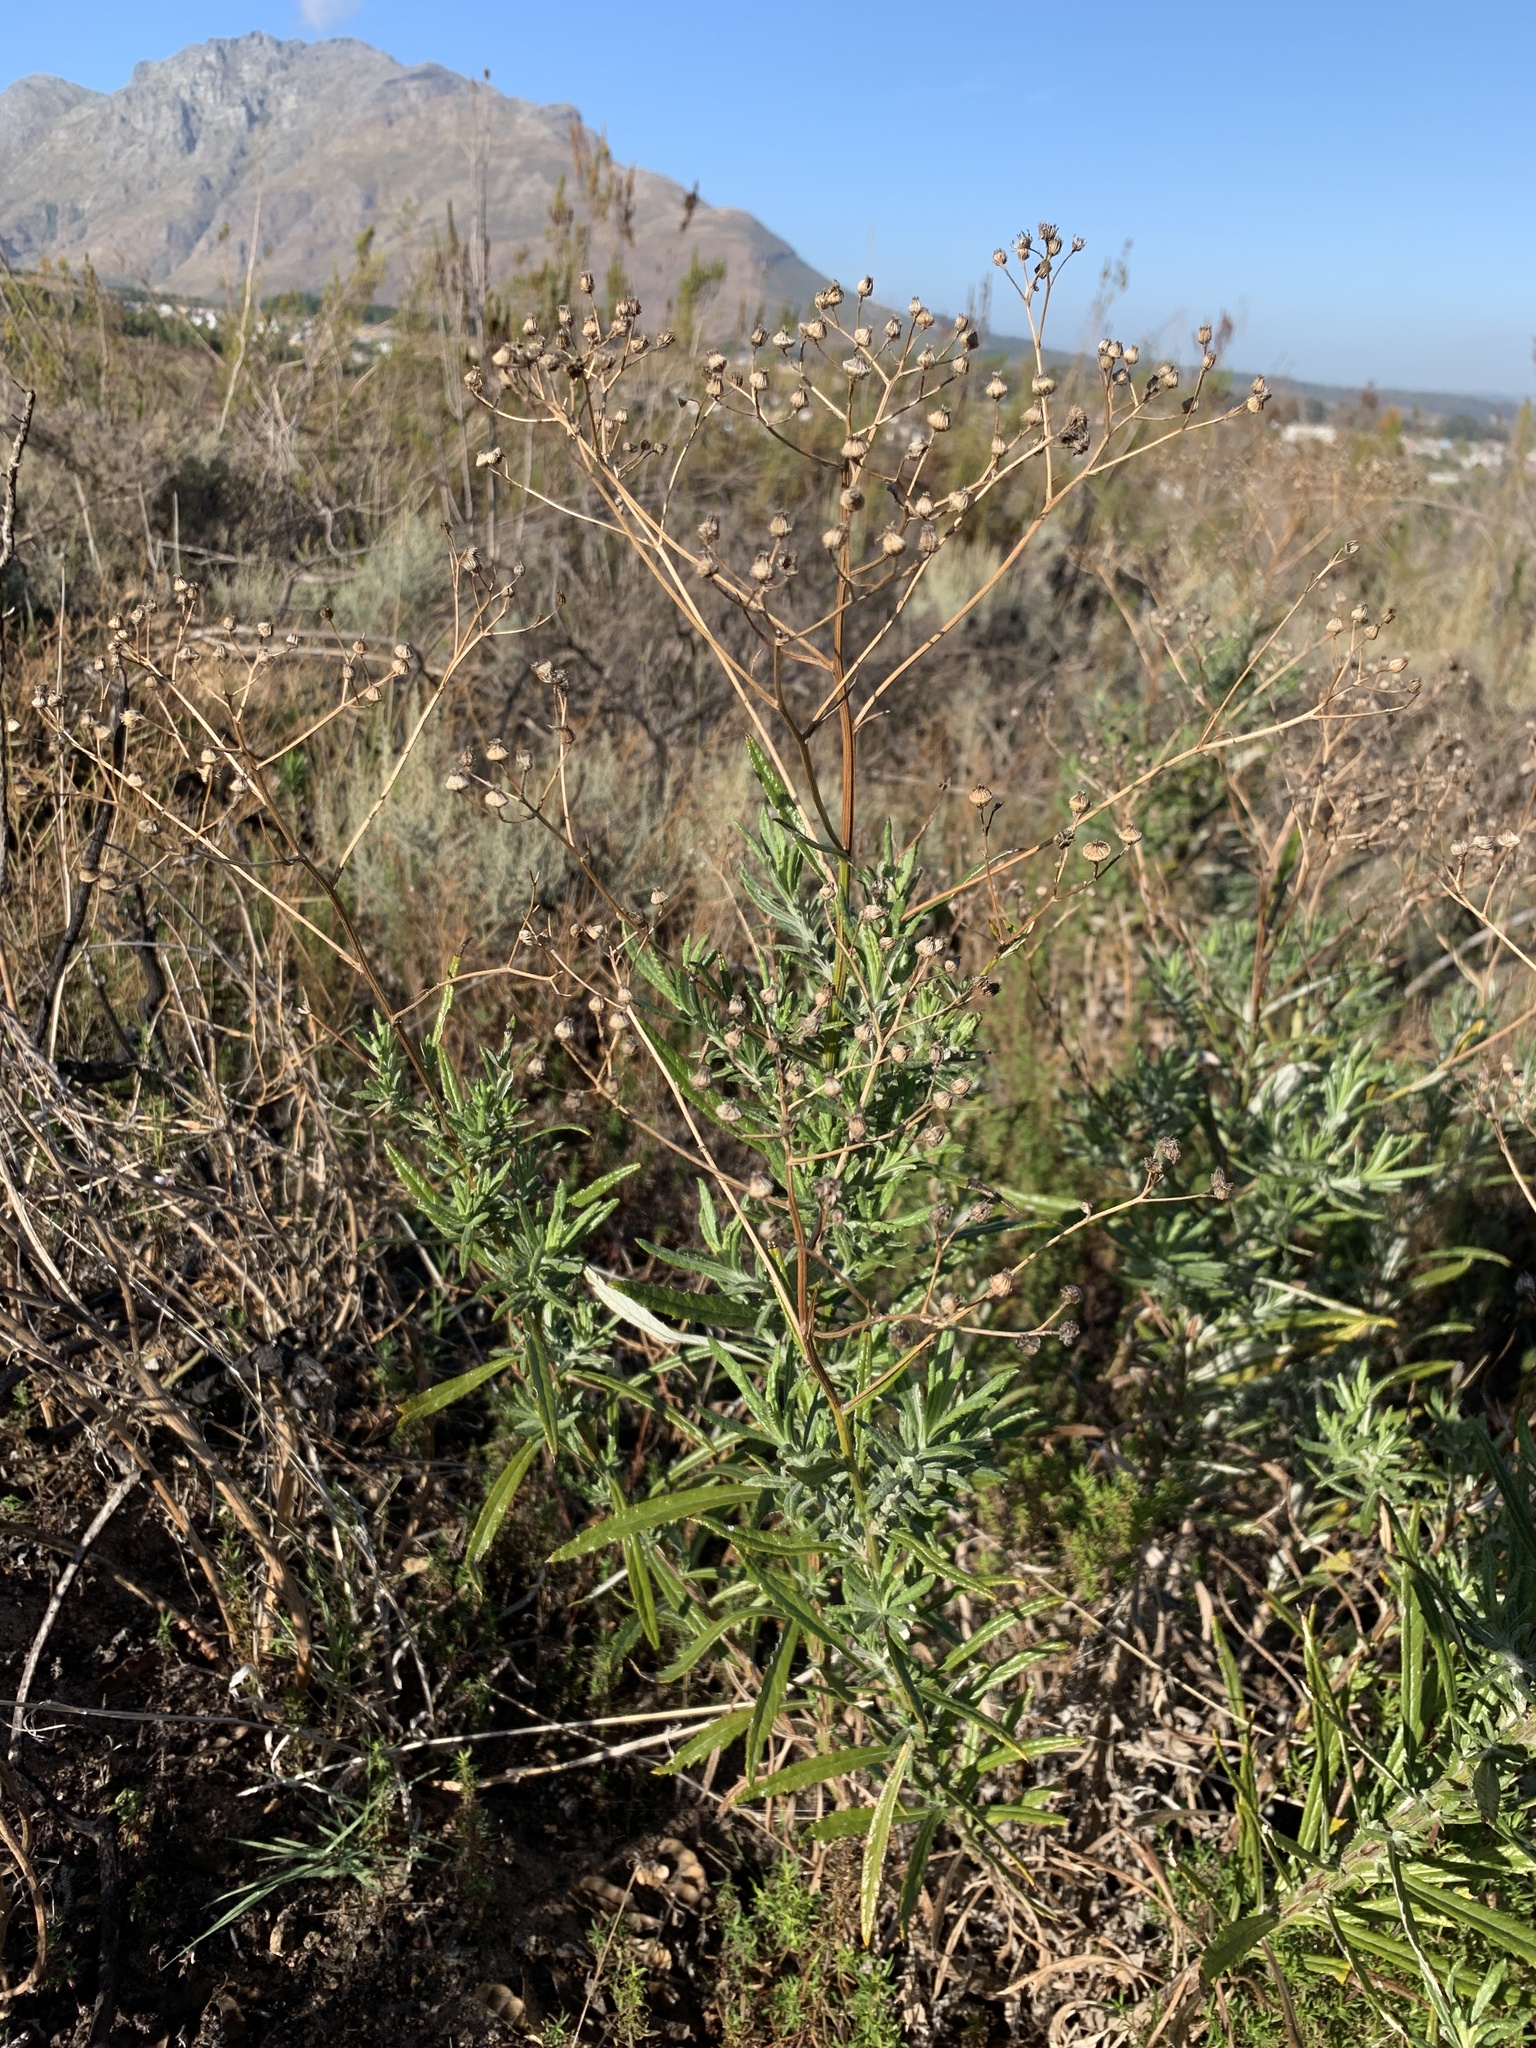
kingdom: Plantae
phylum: Tracheophyta
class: Magnoliopsida
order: Asterales
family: Asteraceae
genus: Senecio
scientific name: Senecio pterophorus
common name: Shoddy ragwort
